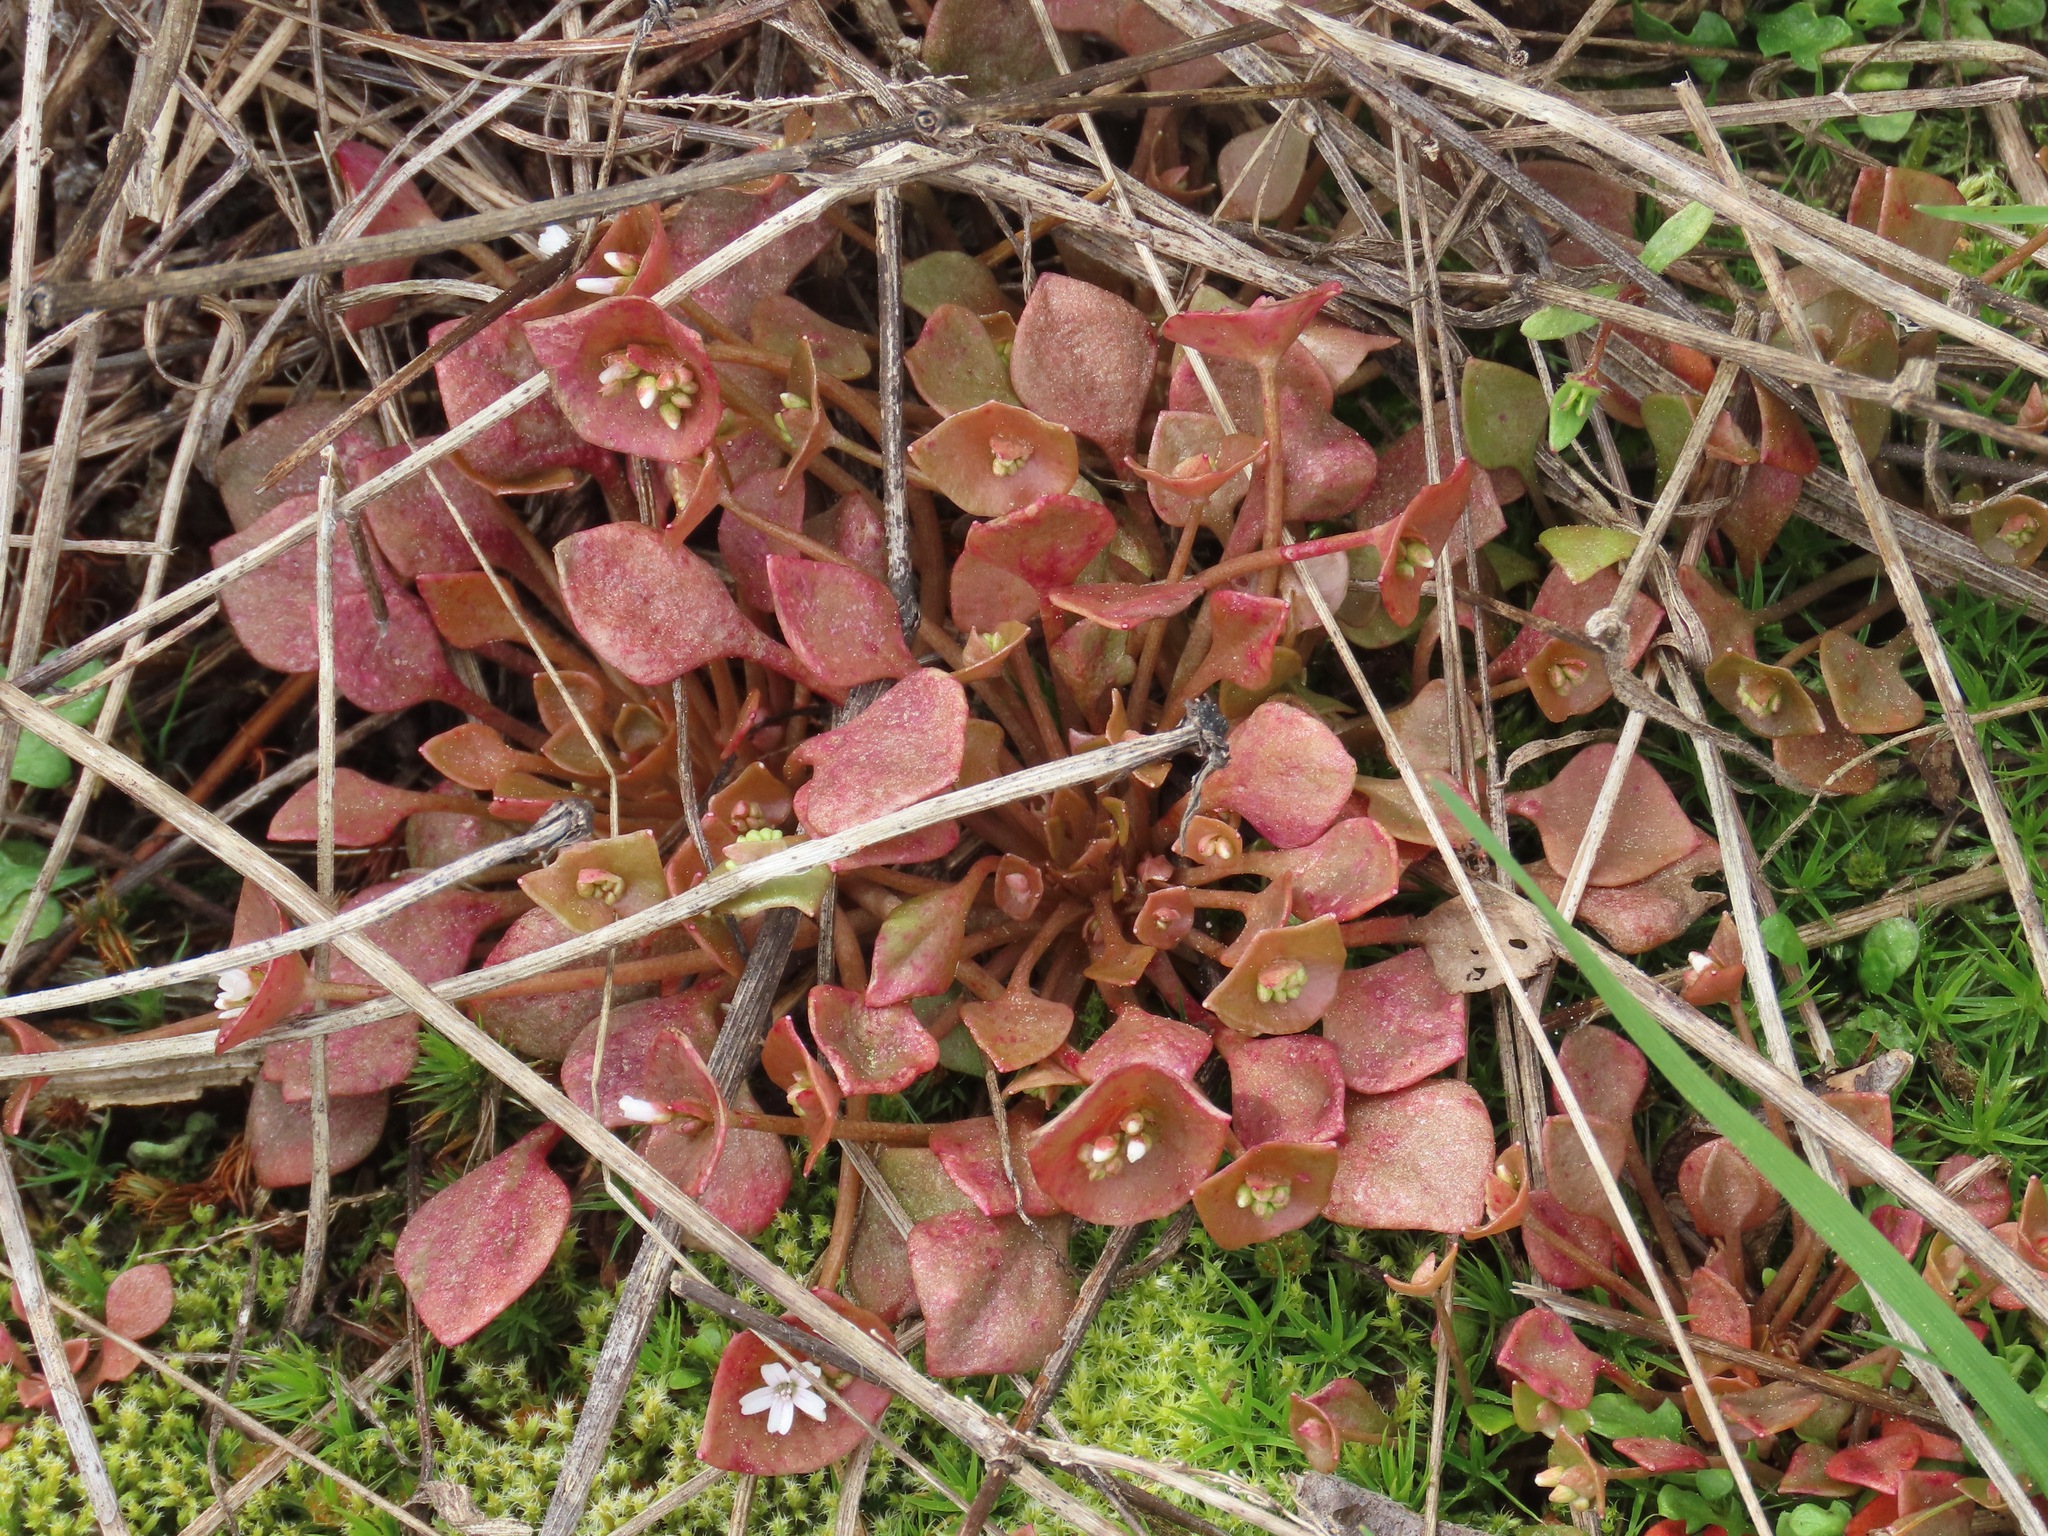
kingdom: Plantae
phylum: Tracheophyta
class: Magnoliopsida
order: Caryophyllales
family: Montiaceae
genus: Claytonia
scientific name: Claytonia rubra
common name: Erubescent miner's-lettuce
